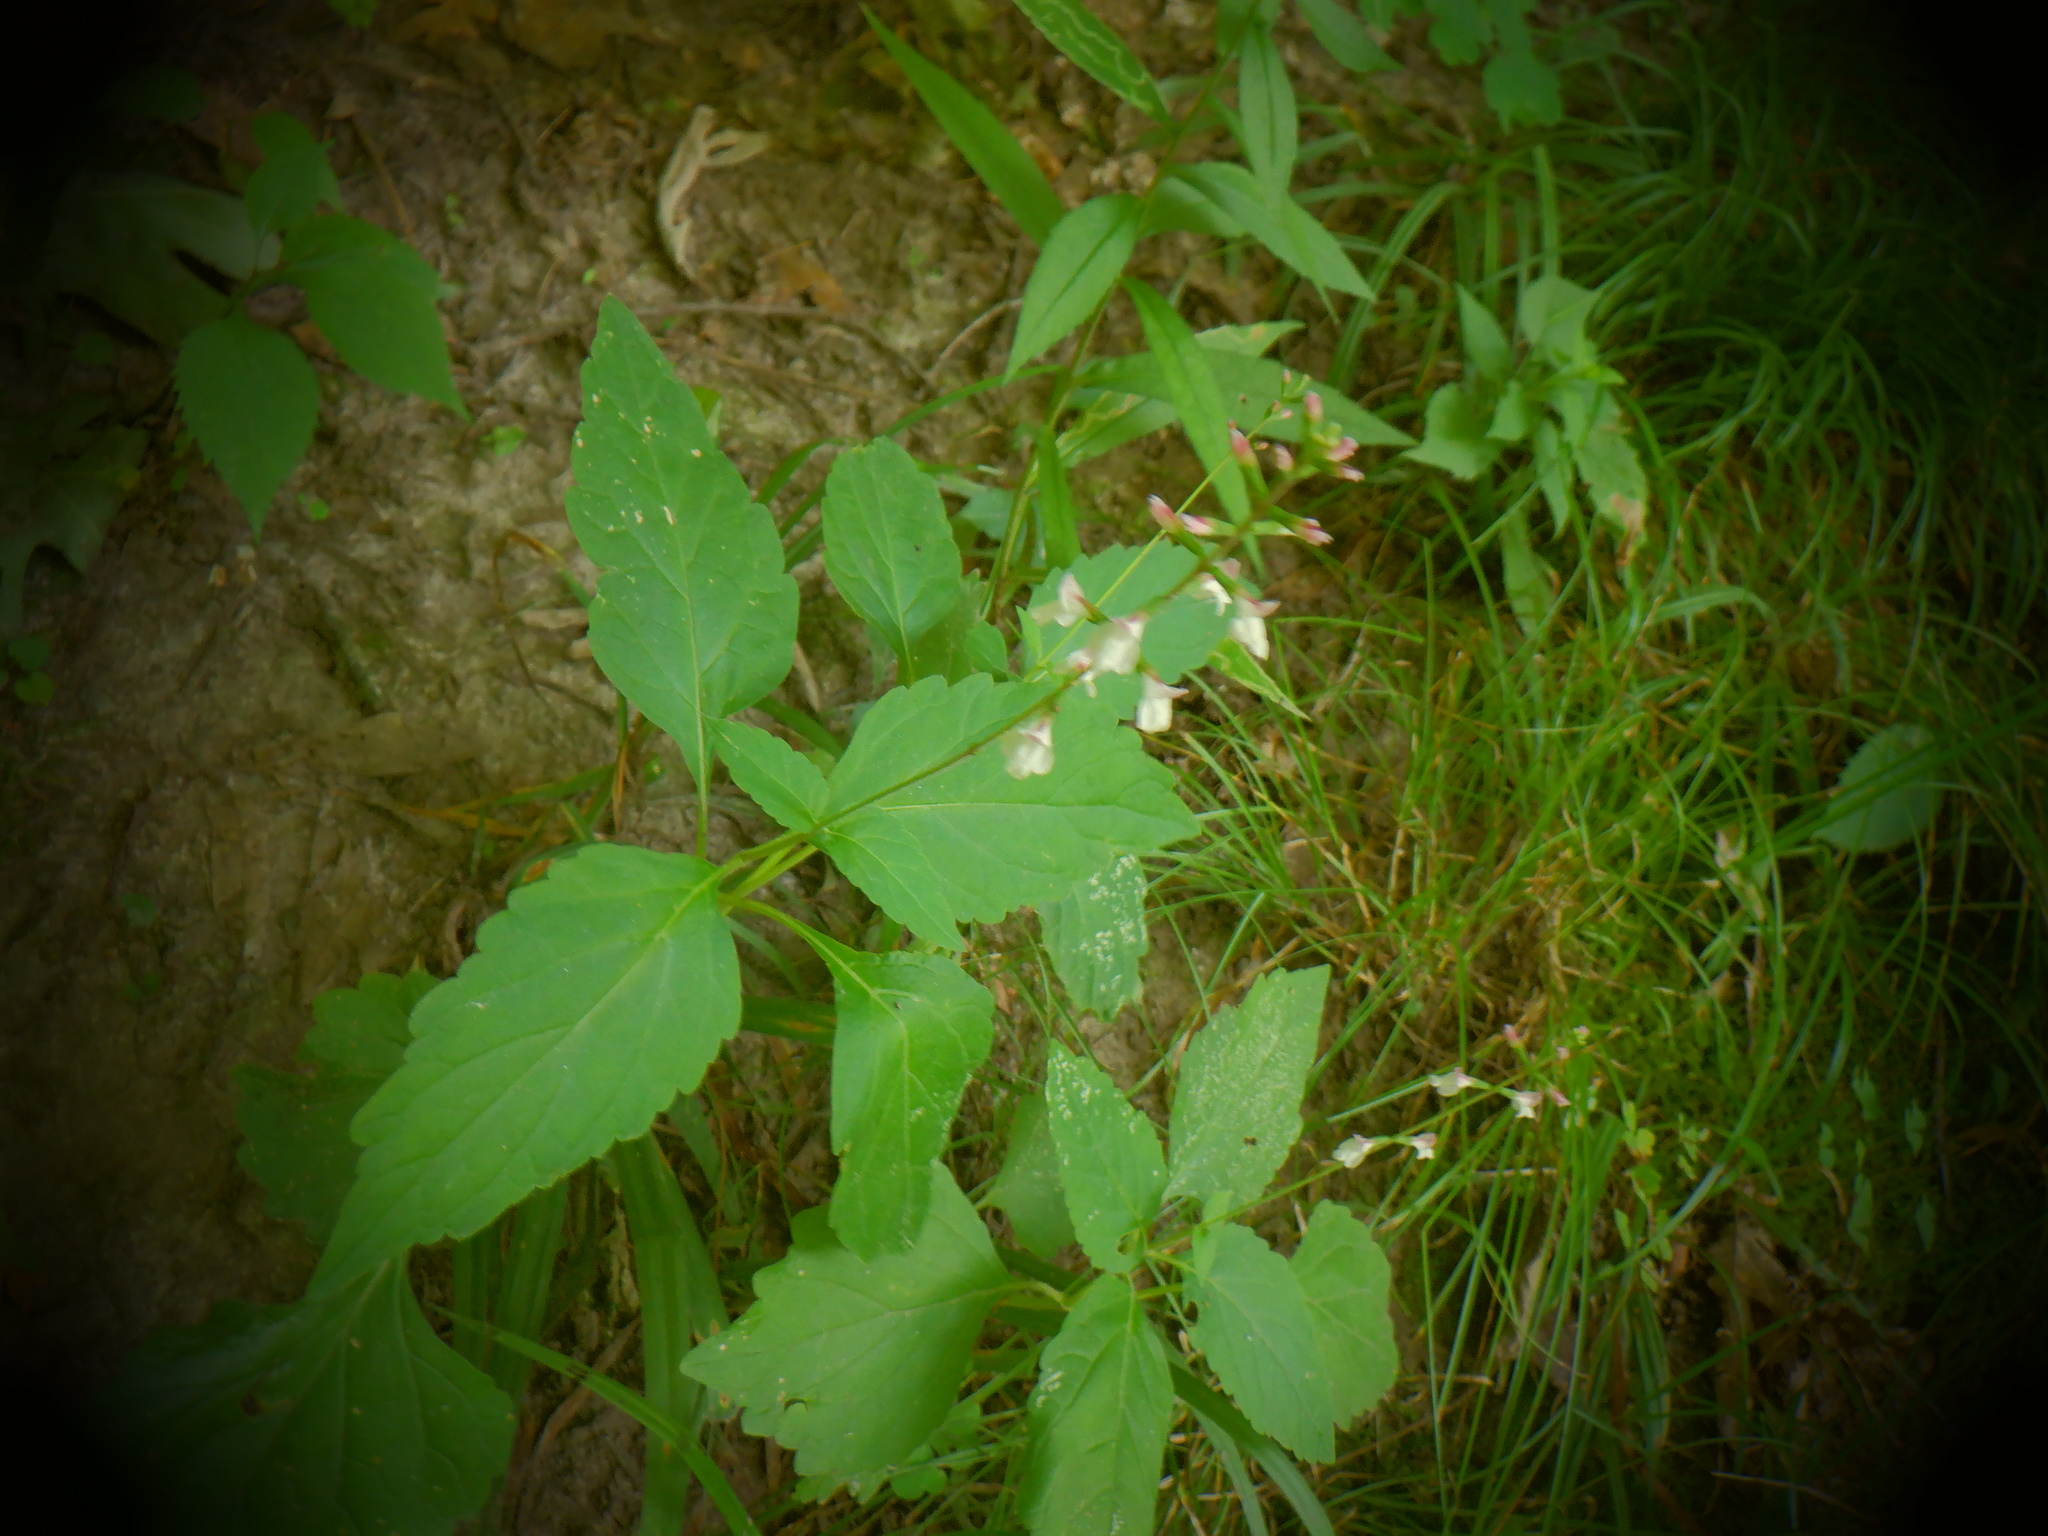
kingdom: Plantae
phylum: Tracheophyta
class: Magnoliopsida
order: Lamiales
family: Phrymaceae
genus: Phryma
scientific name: Phryma leptostachya
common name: American lopseed
